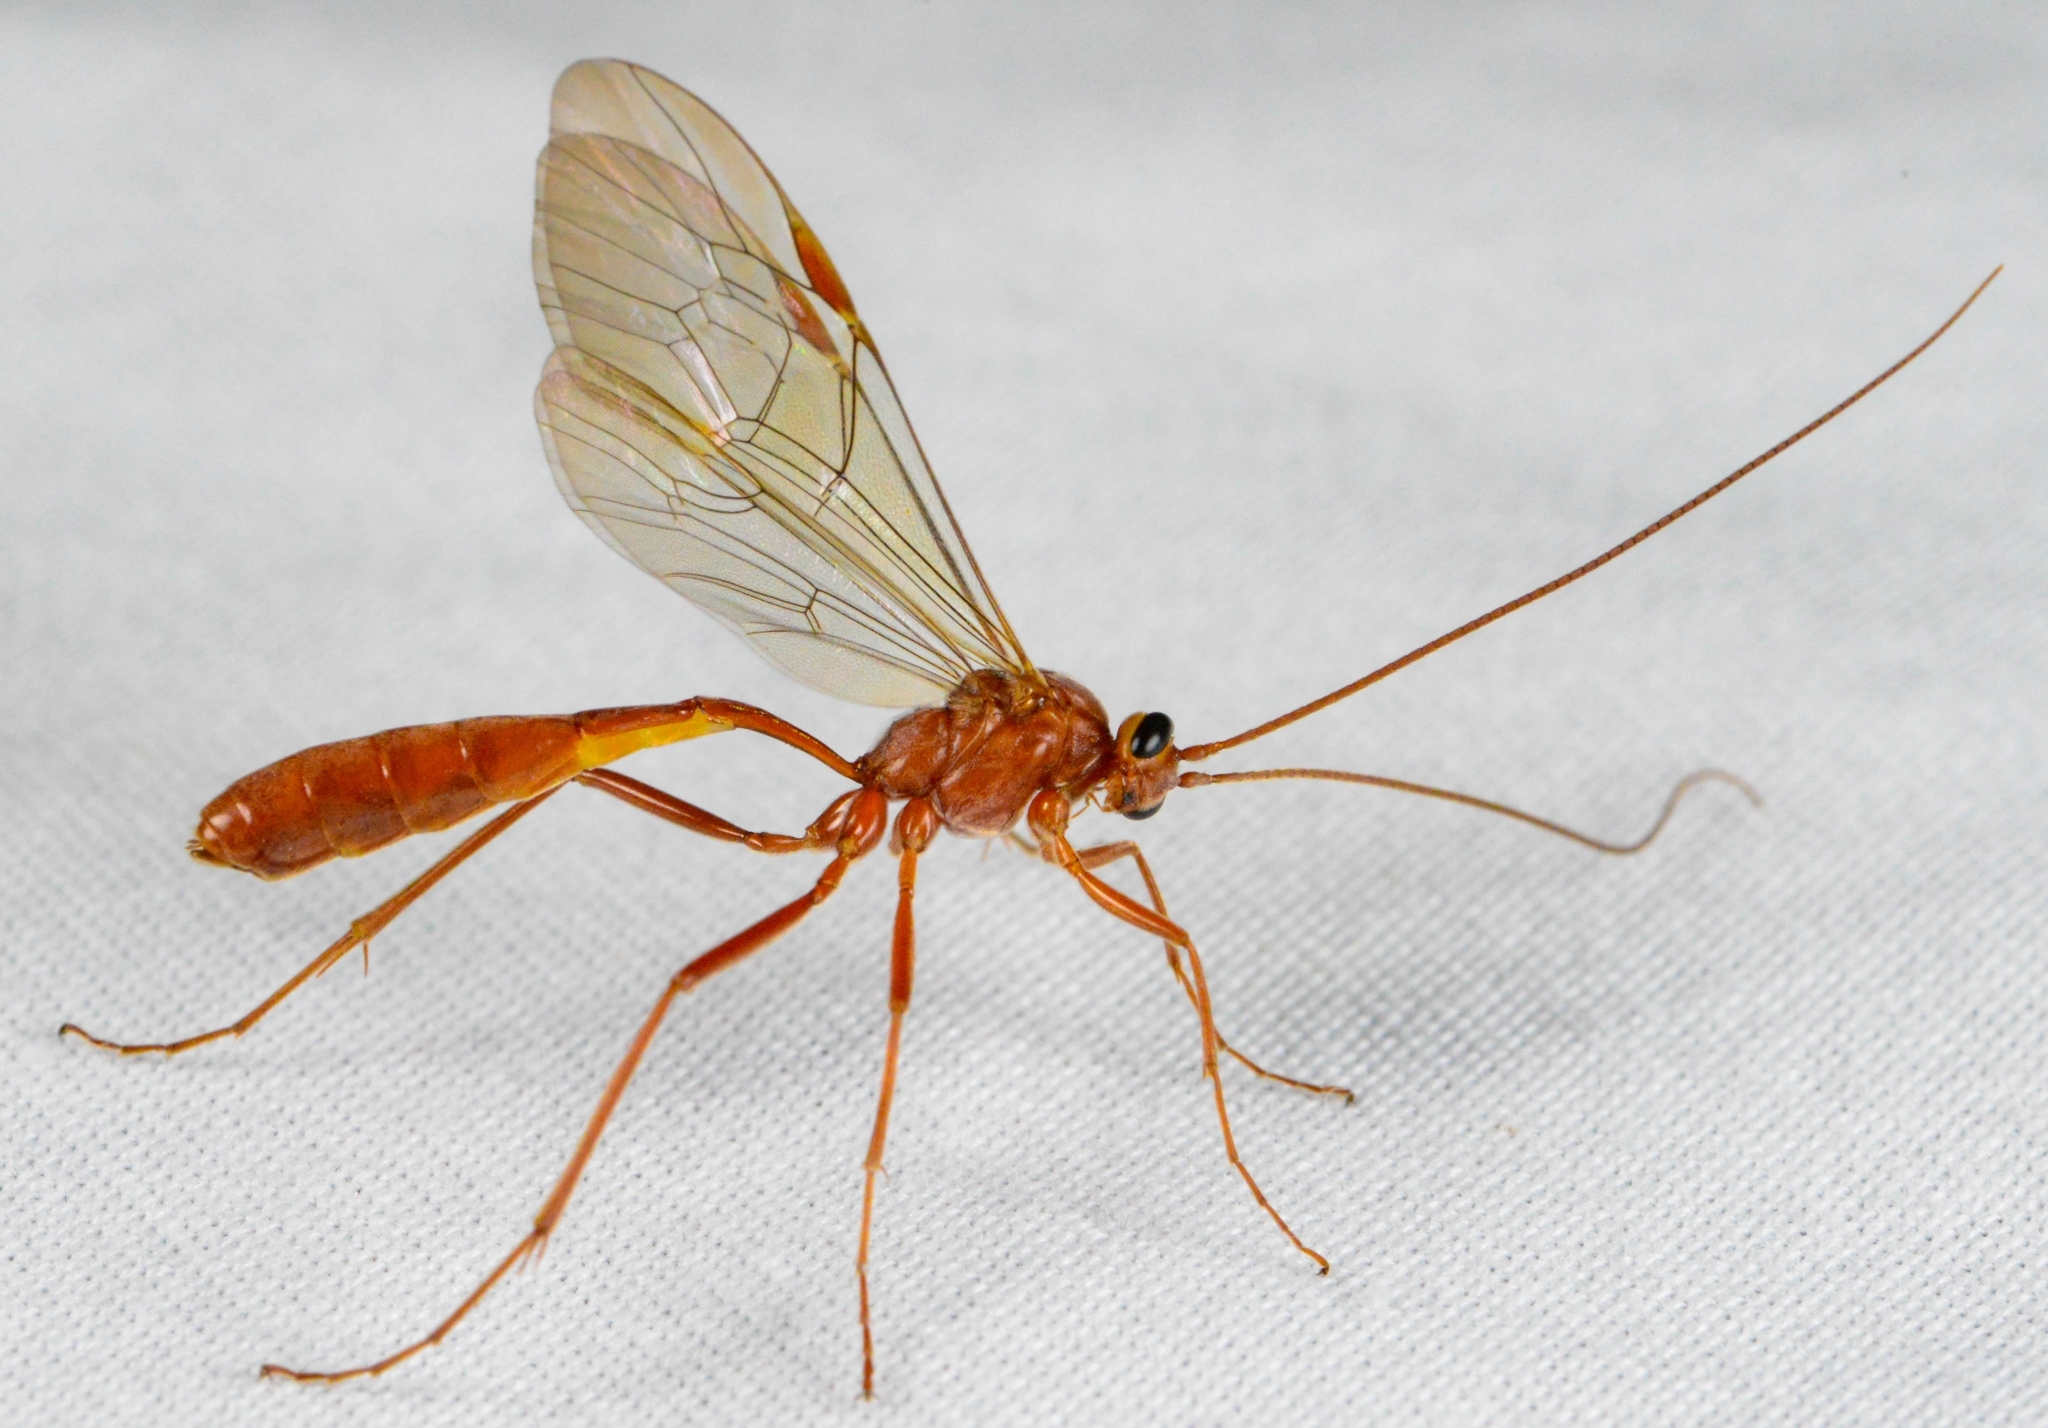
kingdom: Animalia
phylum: Arthropoda
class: Insecta
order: Hymenoptera
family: Ichneumonidae
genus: Ophion
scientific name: Ophion
